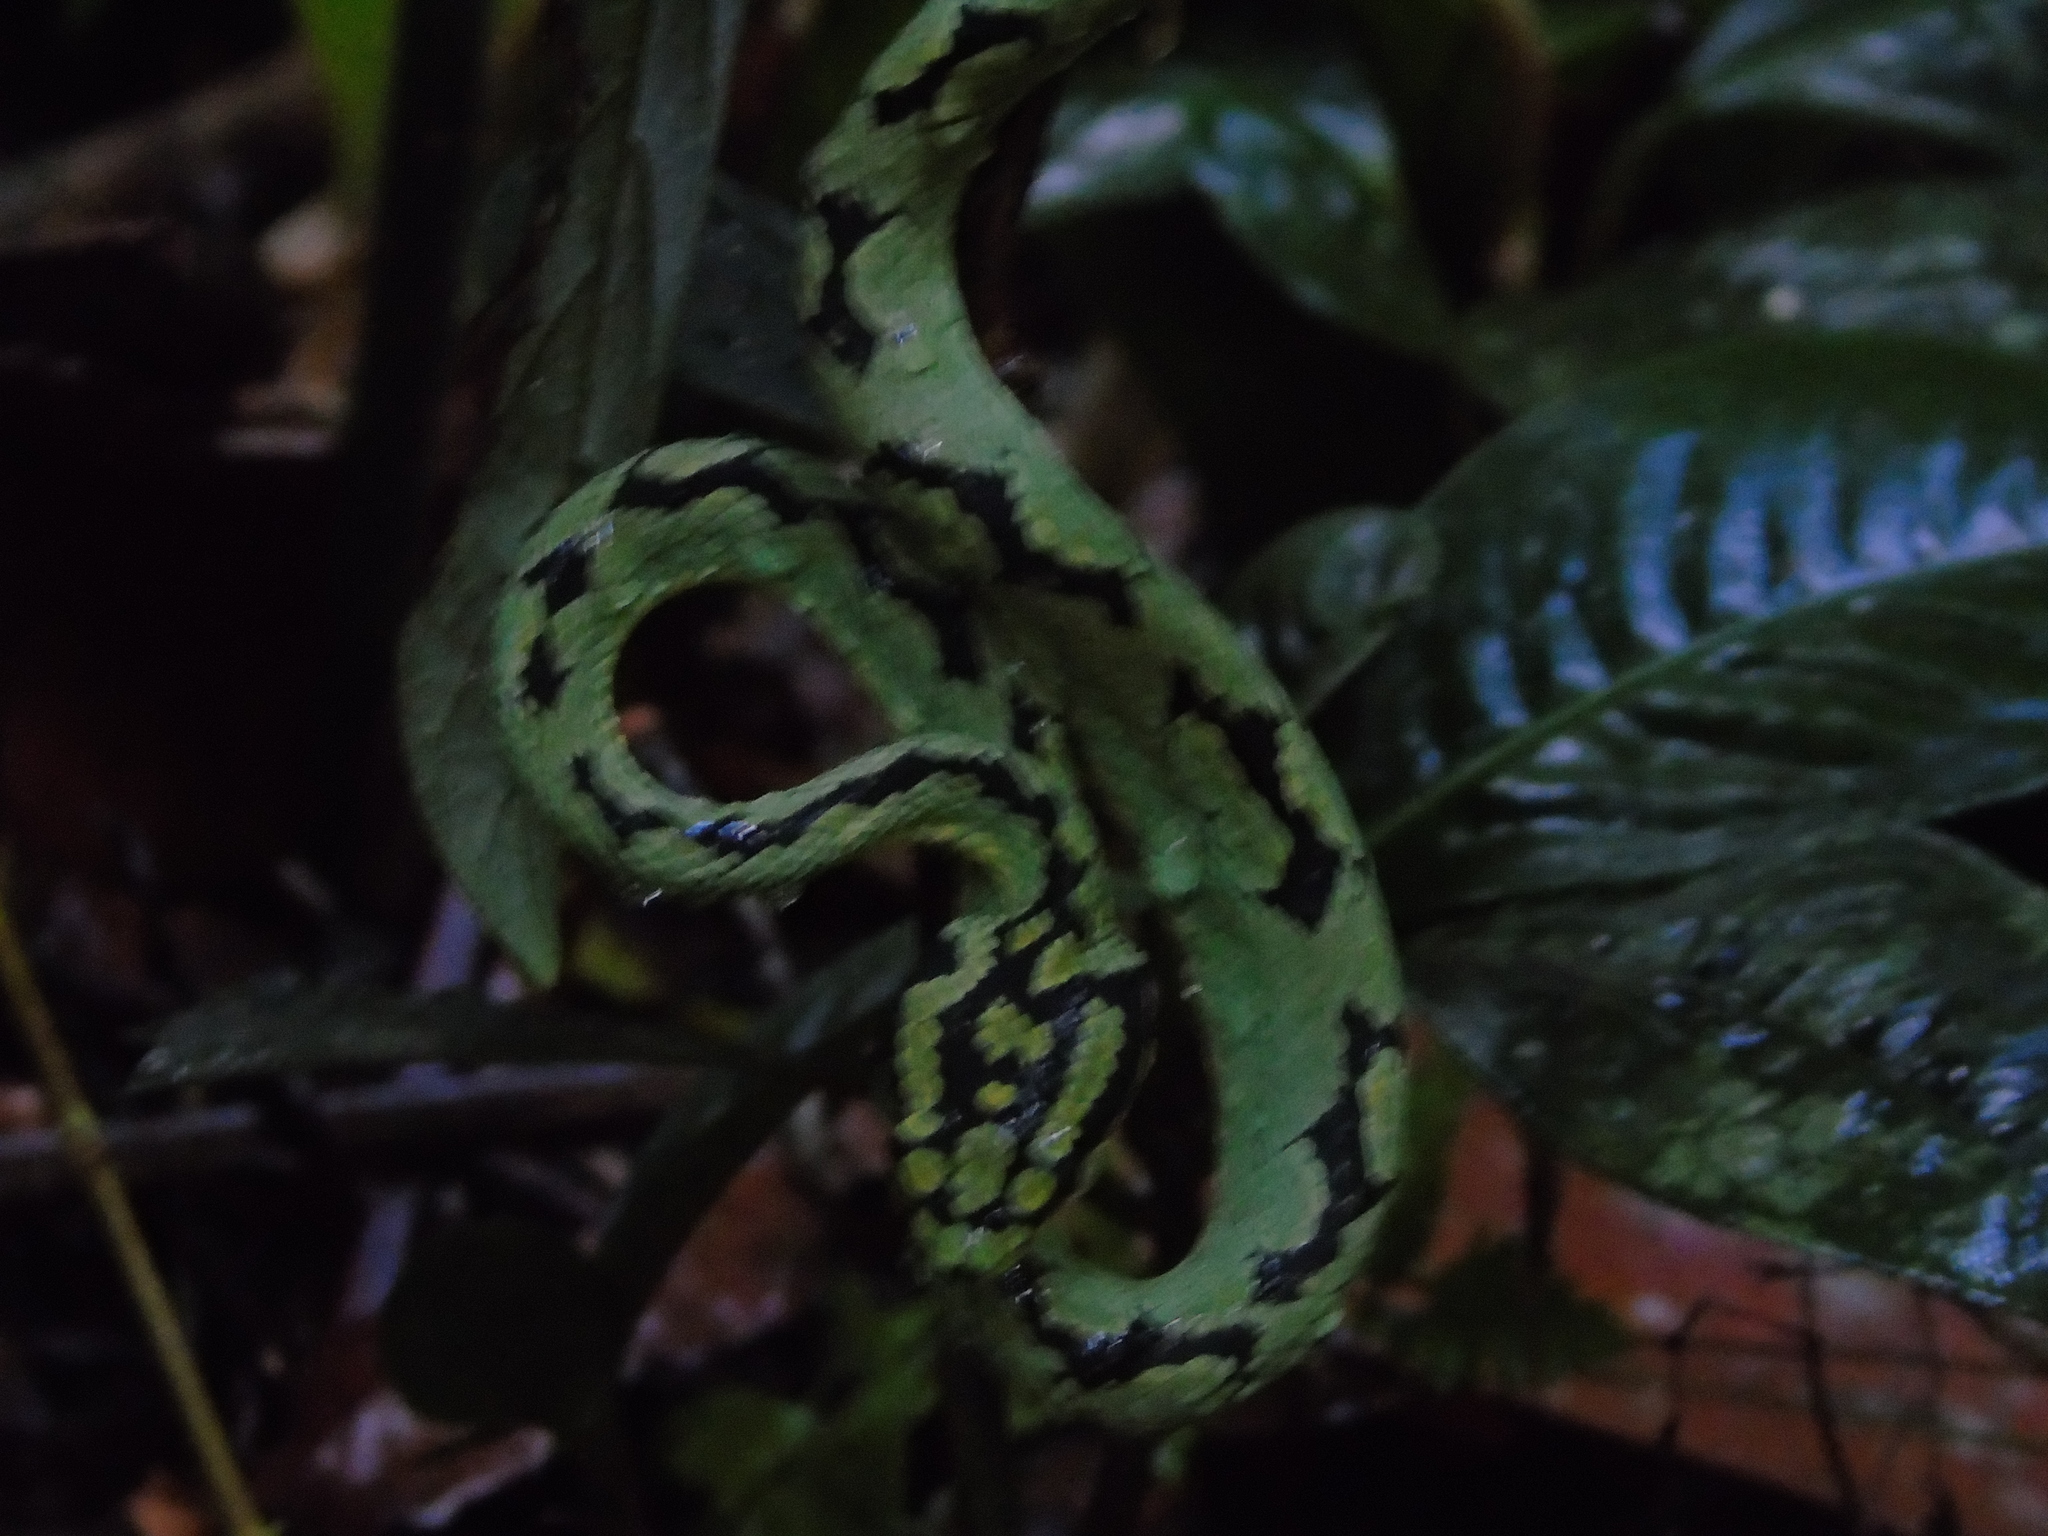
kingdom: Animalia
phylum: Chordata
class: Squamata
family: Viperidae
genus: Craspedocephalus
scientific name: Craspedocephalus trigonocephalus
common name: Ceylon pit viper
